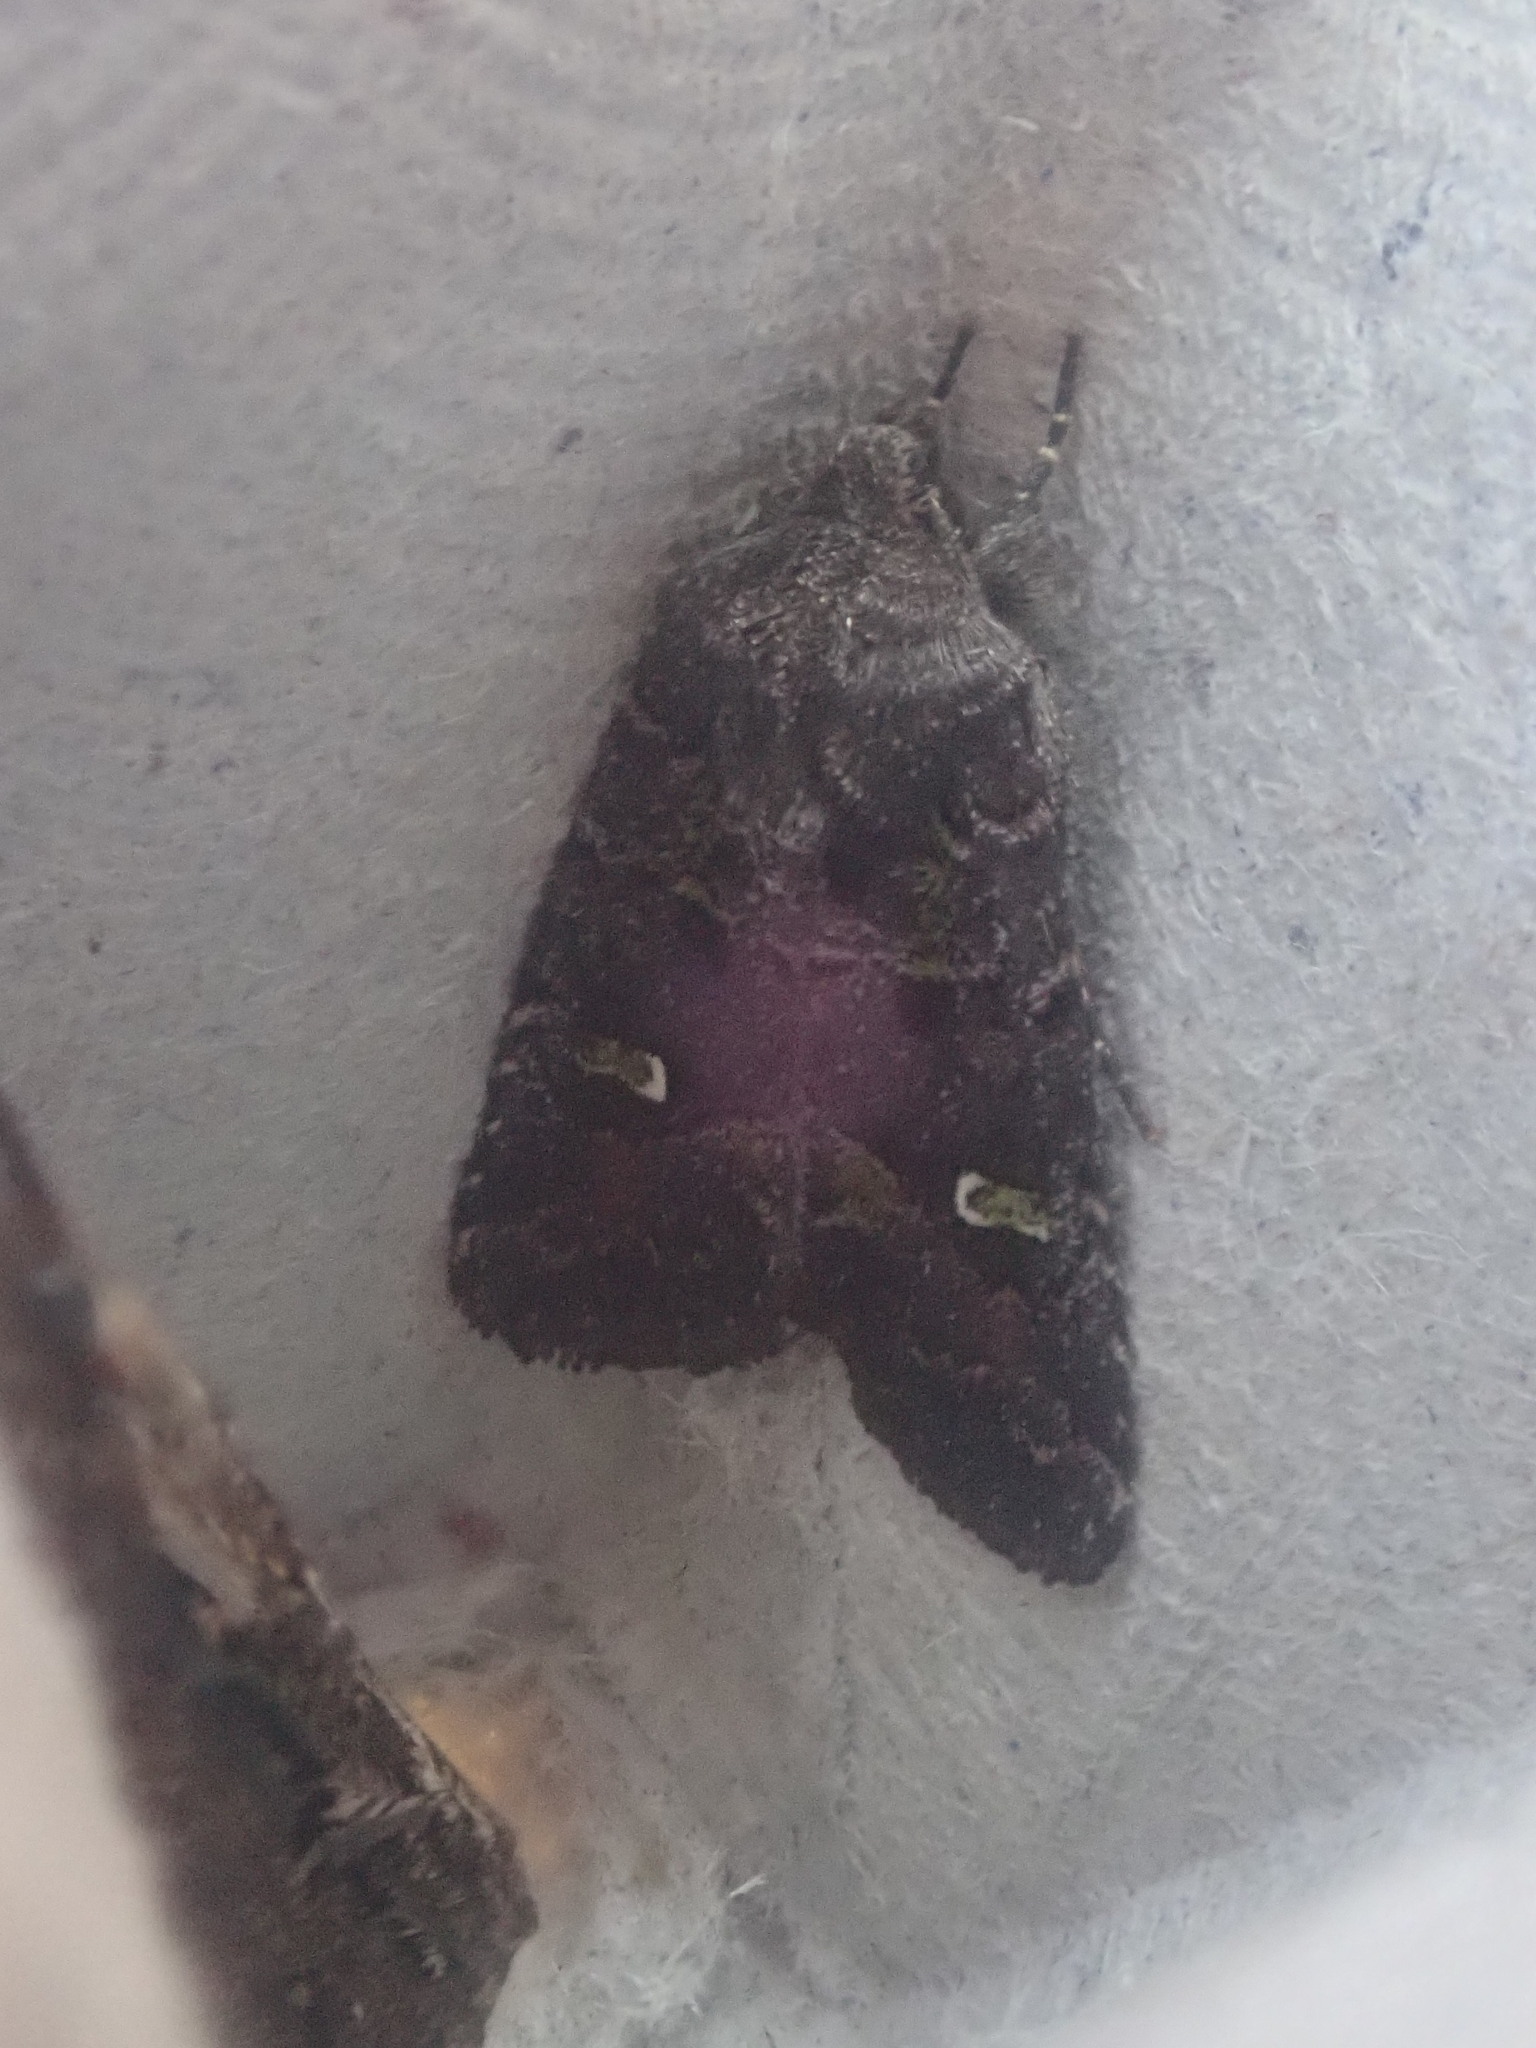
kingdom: Animalia
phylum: Arthropoda
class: Insecta
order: Lepidoptera
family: Noctuidae
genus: Lacinipolia
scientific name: Lacinipolia renigera
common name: Kidney-spotted minor
